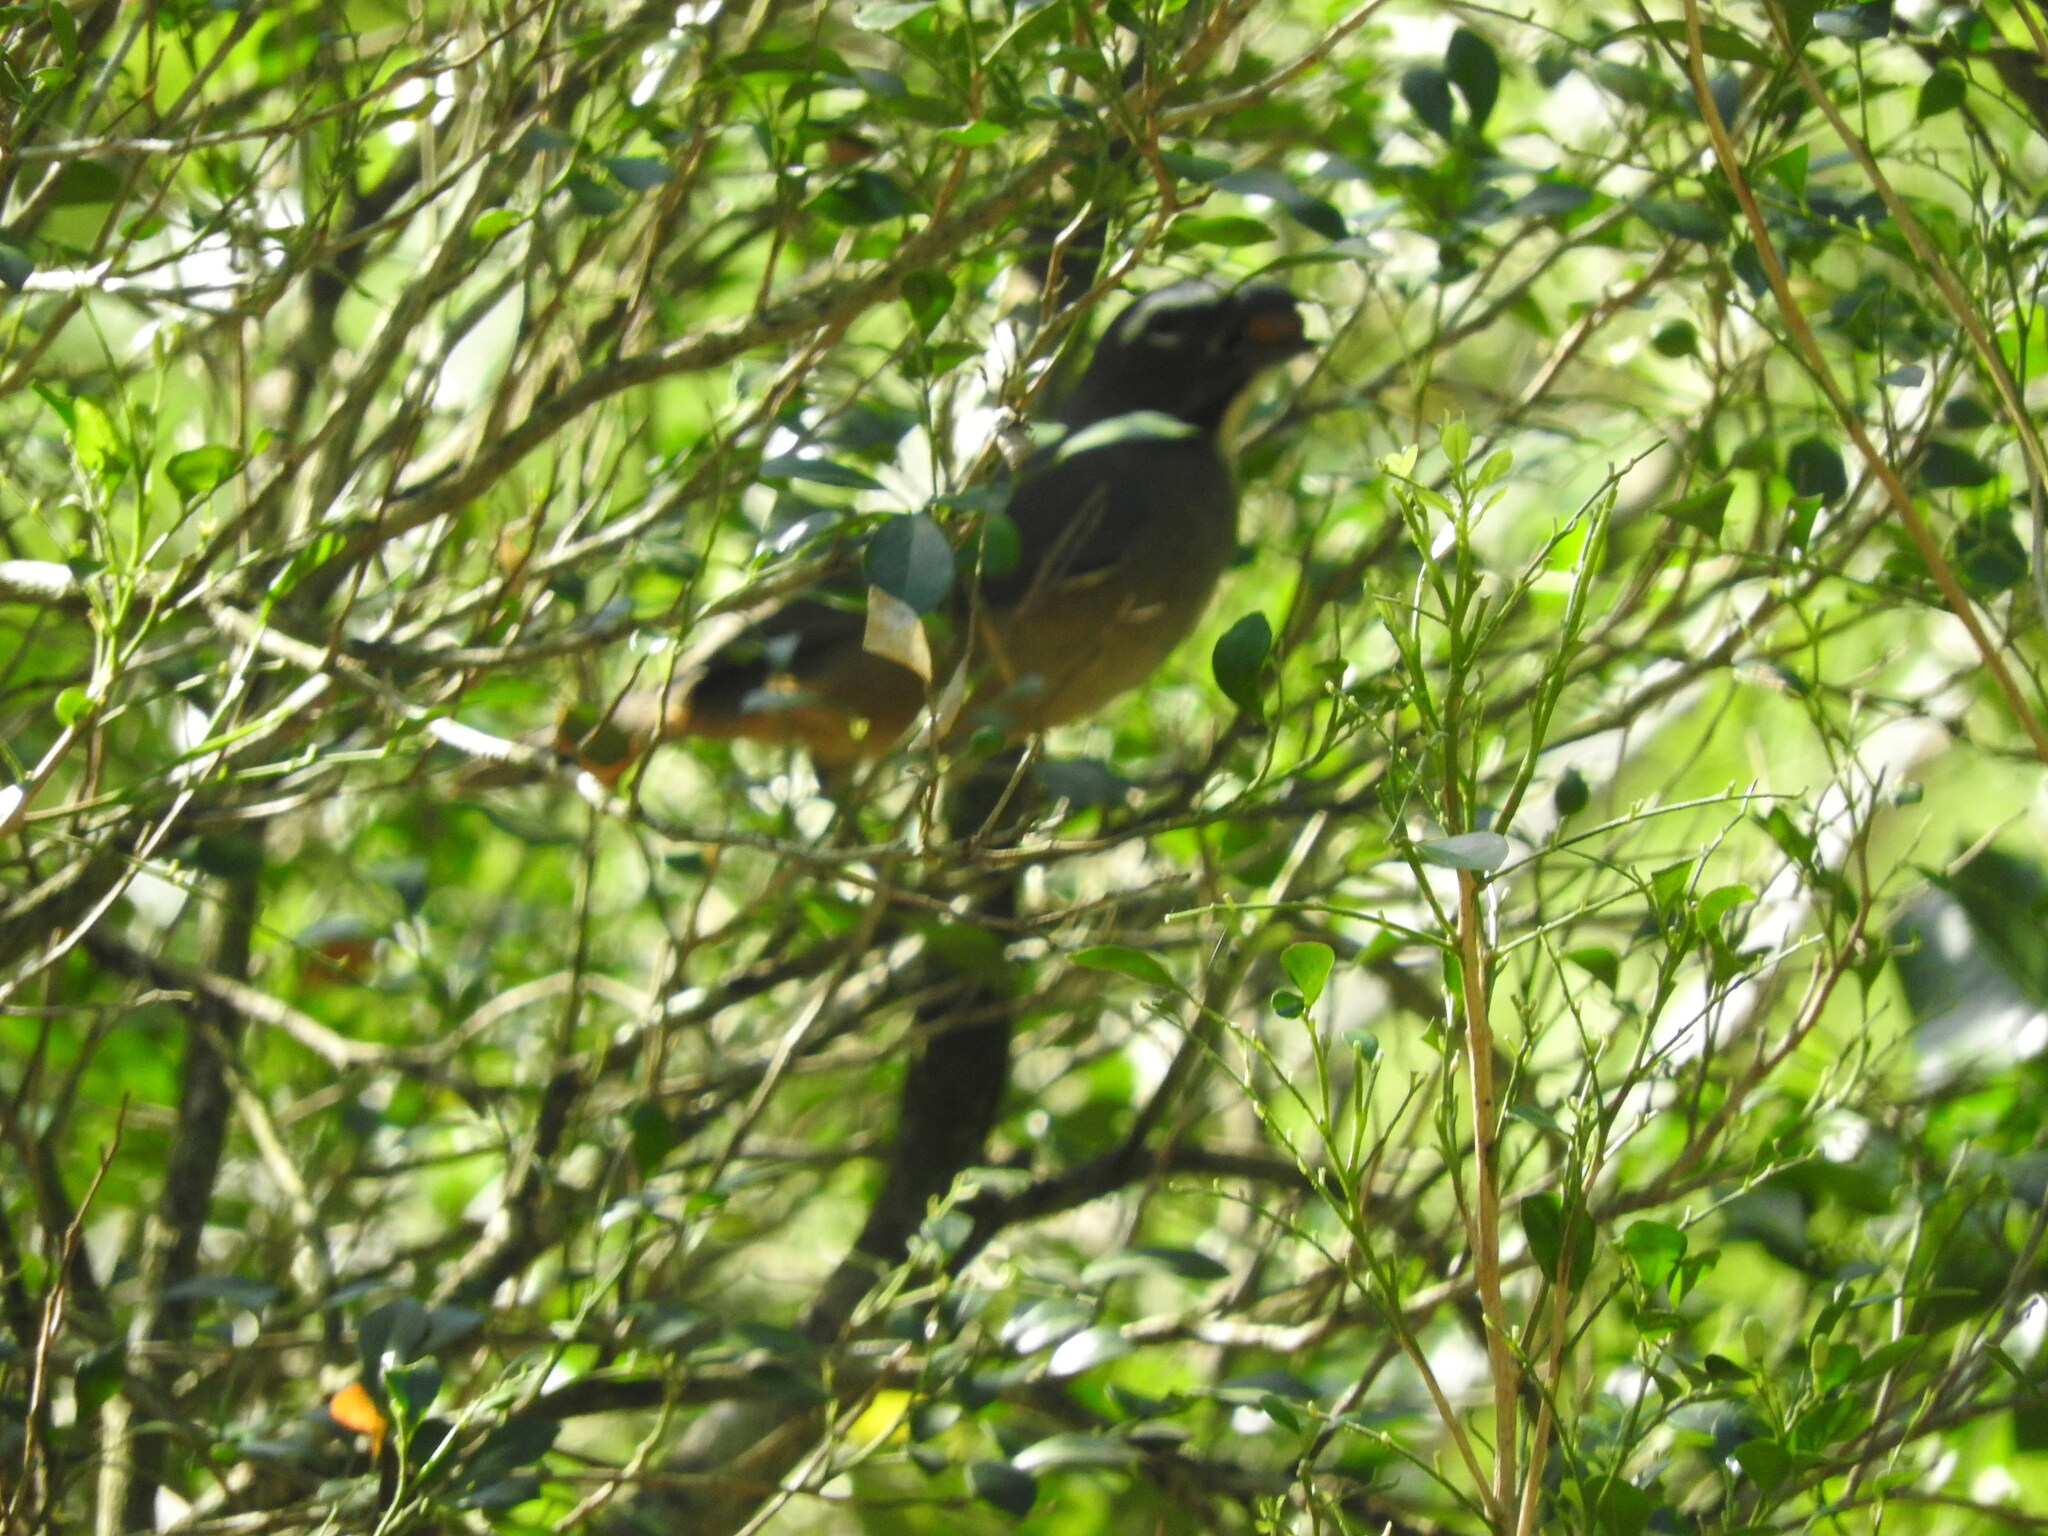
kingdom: Animalia
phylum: Chordata
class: Aves
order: Passeriformes
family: Thraupidae
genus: Saltator
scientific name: Saltator grandis
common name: Cinnamon-bellied saltator
